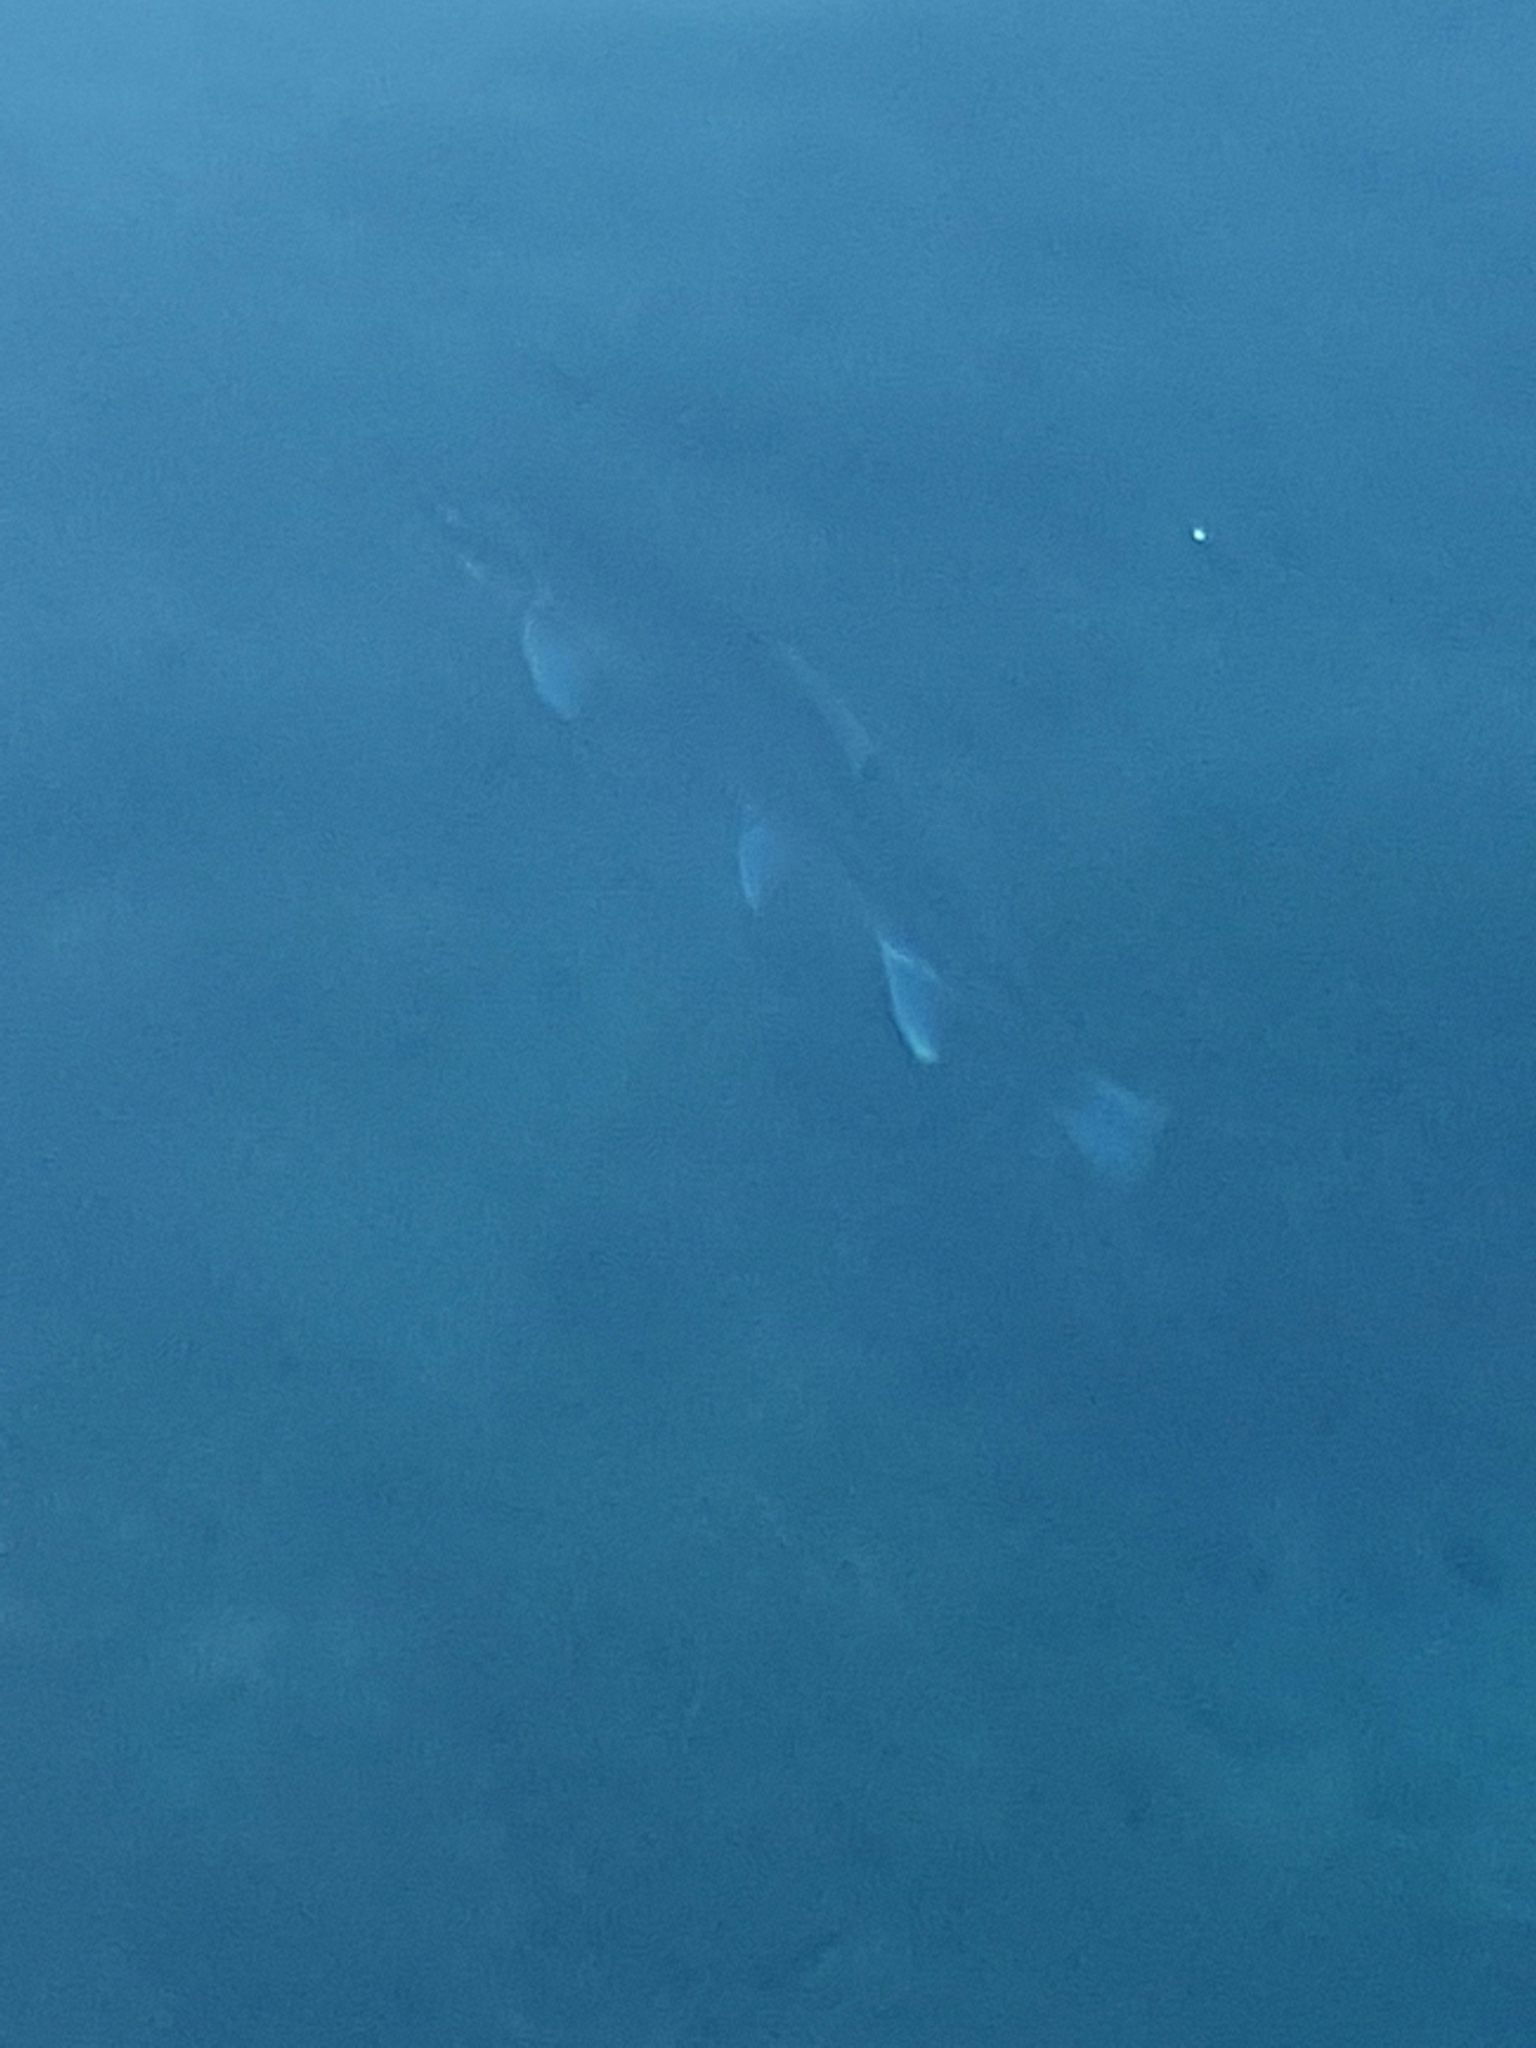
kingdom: Animalia
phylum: Chordata
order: Salmoniformes
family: Salmonidae
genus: Salvelinus
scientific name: Salvelinus fontinalis
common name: Brook trout
